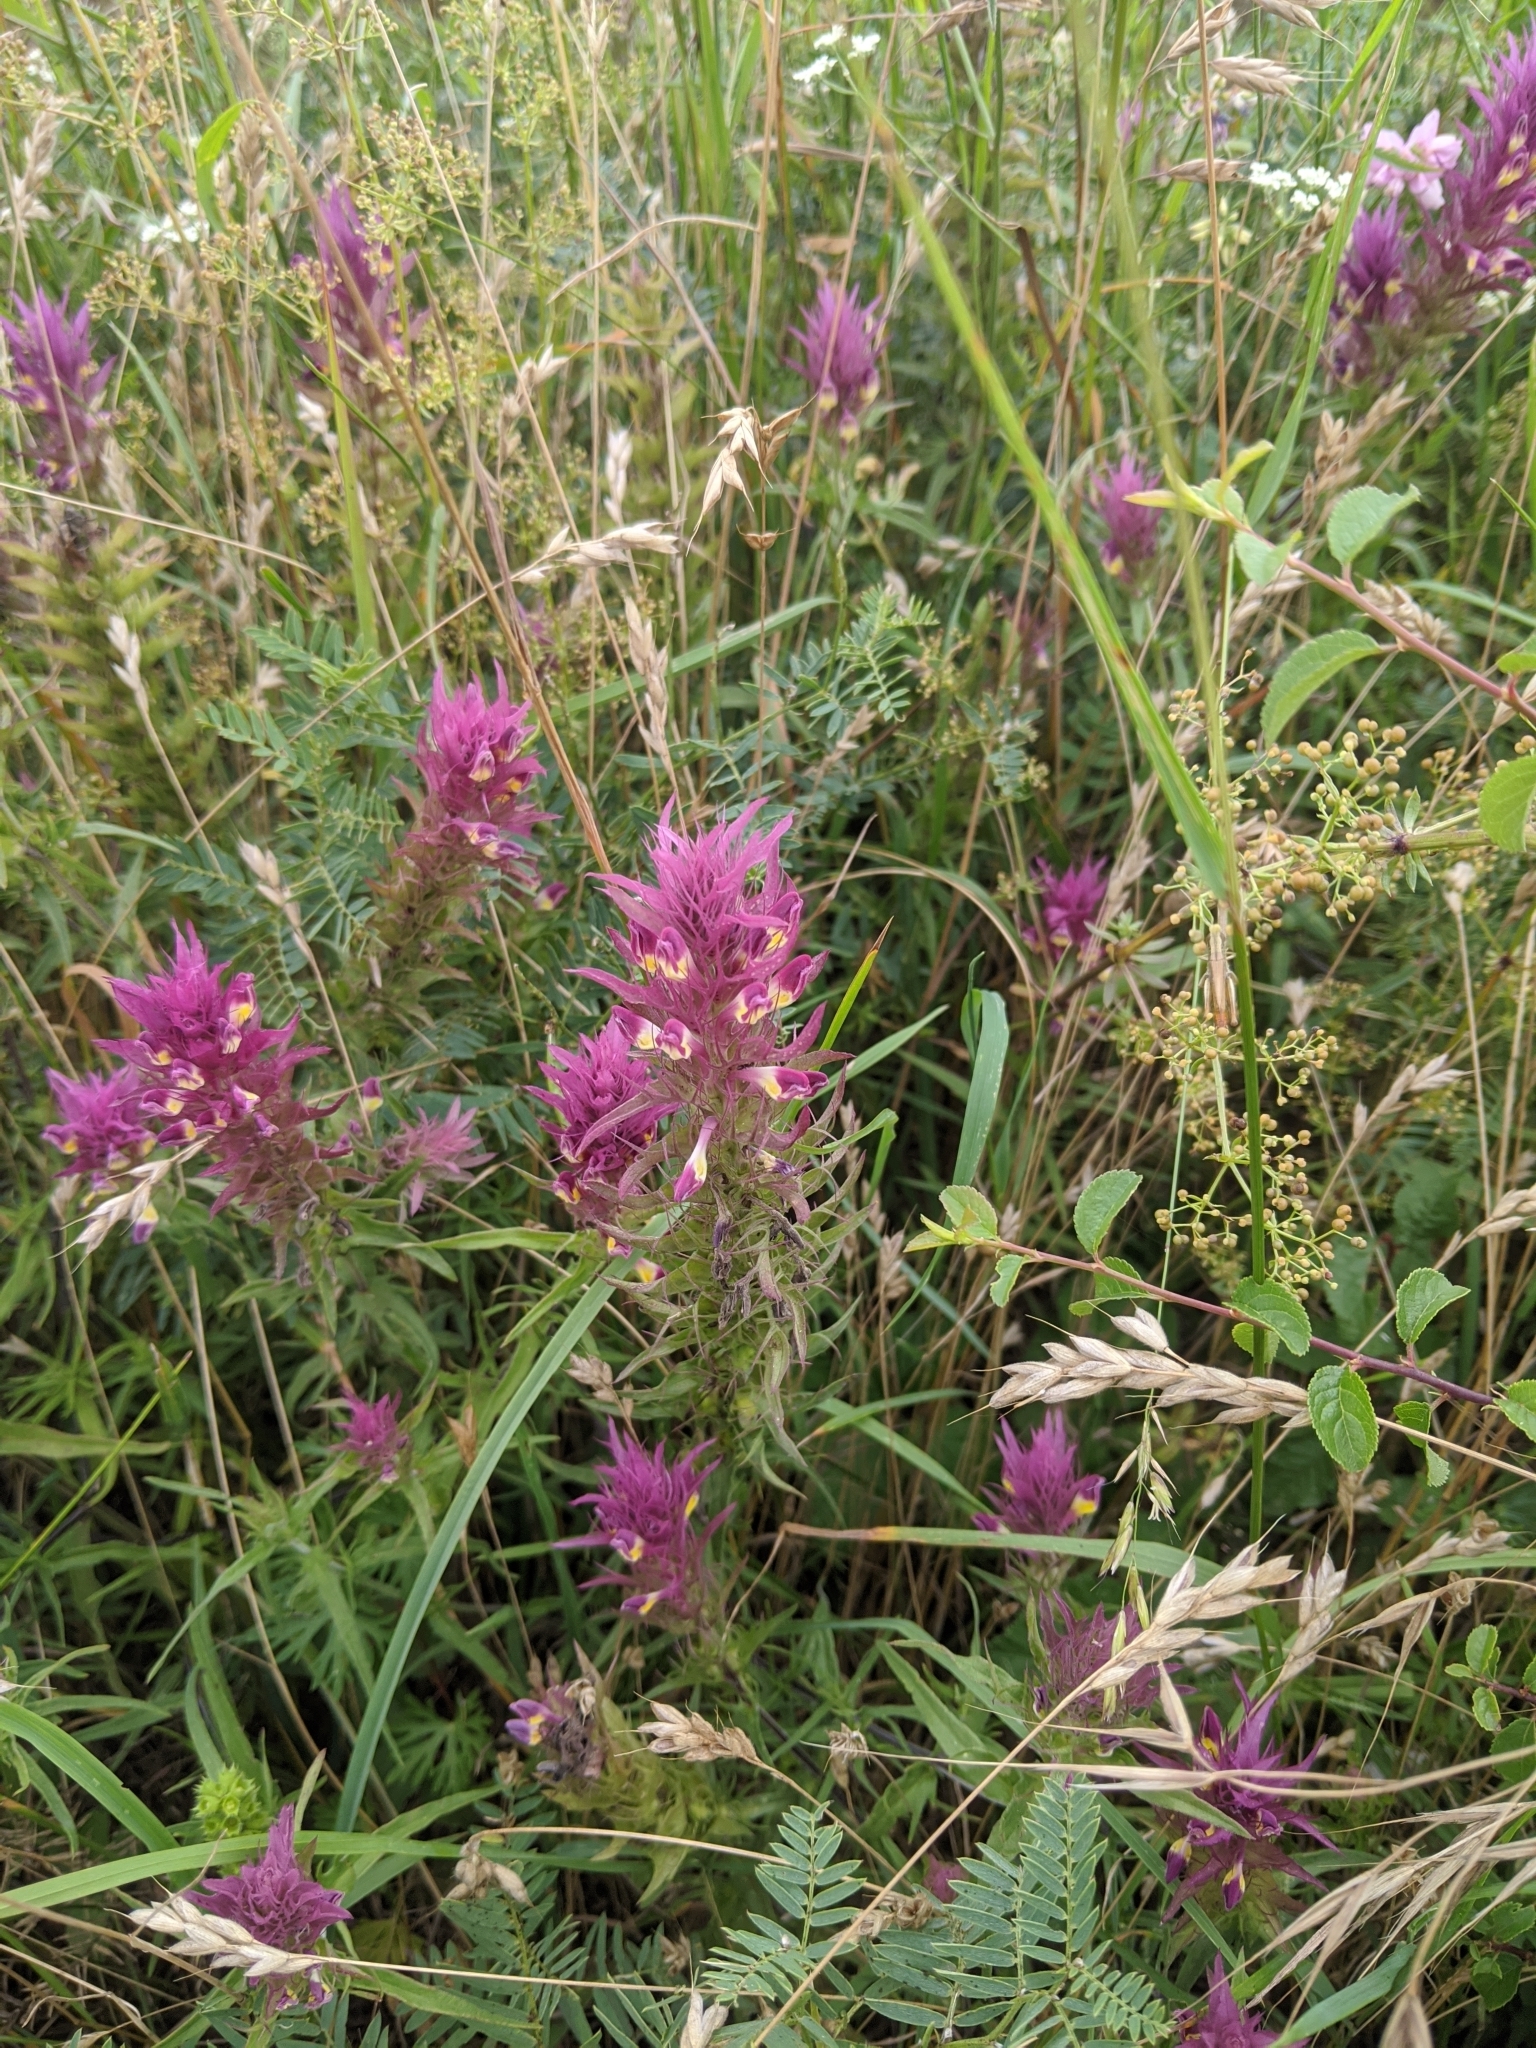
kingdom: Plantae
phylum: Tracheophyta
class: Magnoliopsida
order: Lamiales
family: Orobanchaceae
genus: Melampyrum
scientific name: Melampyrum arvense
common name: Field cow-wheat
